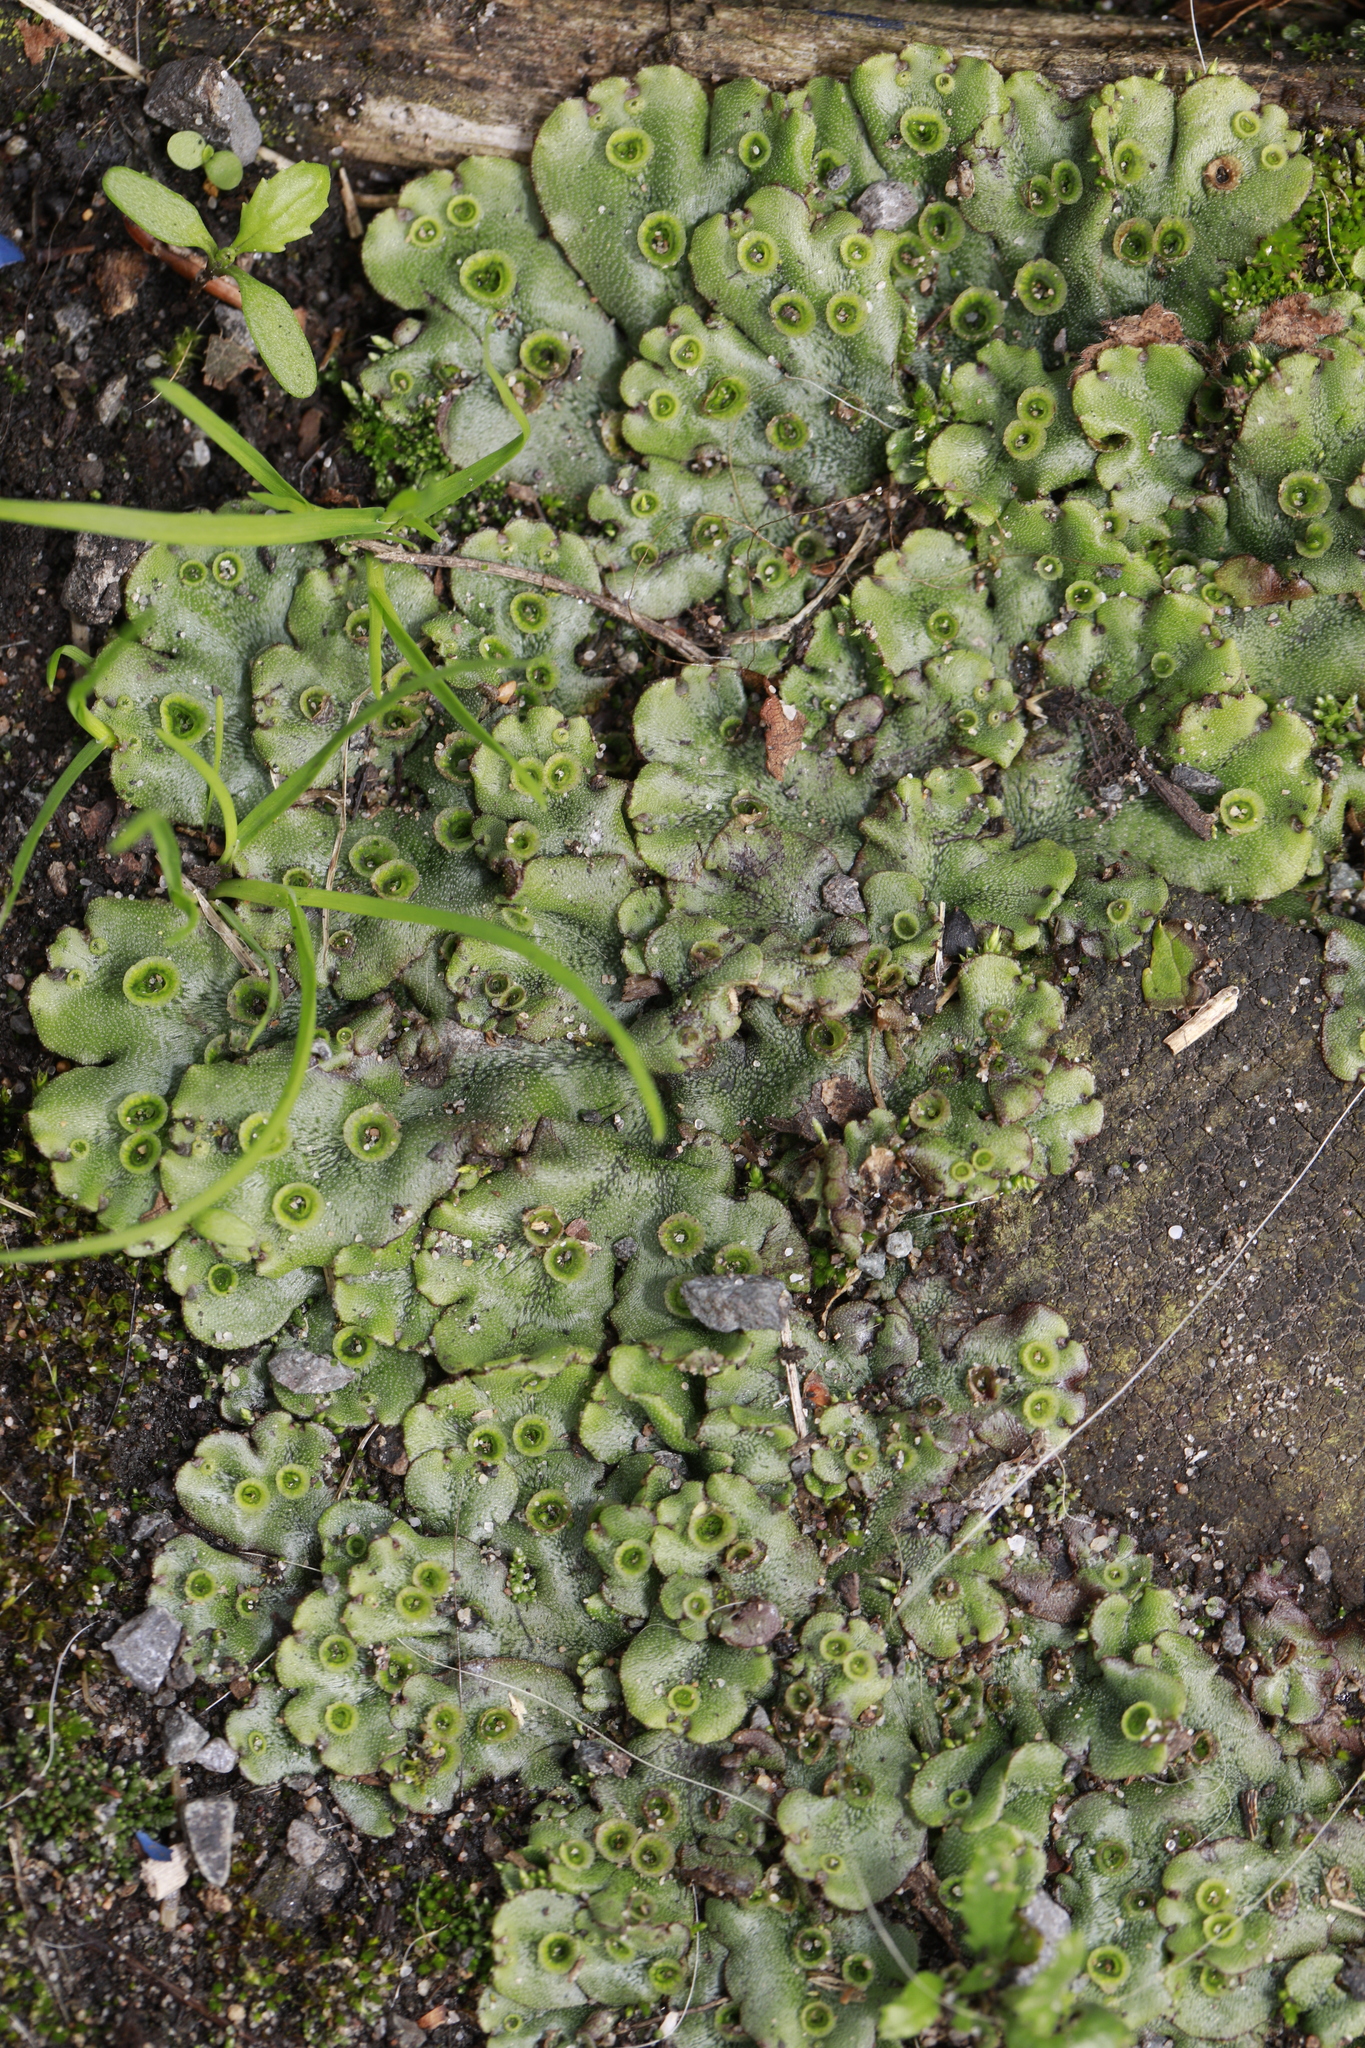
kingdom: Plantae
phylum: Marchantiophyta
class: Marchantiopsida
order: Marchantiales
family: Marchantiaceae
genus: Marchantia
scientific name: Marchantia polymorpha
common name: Common liverwort
